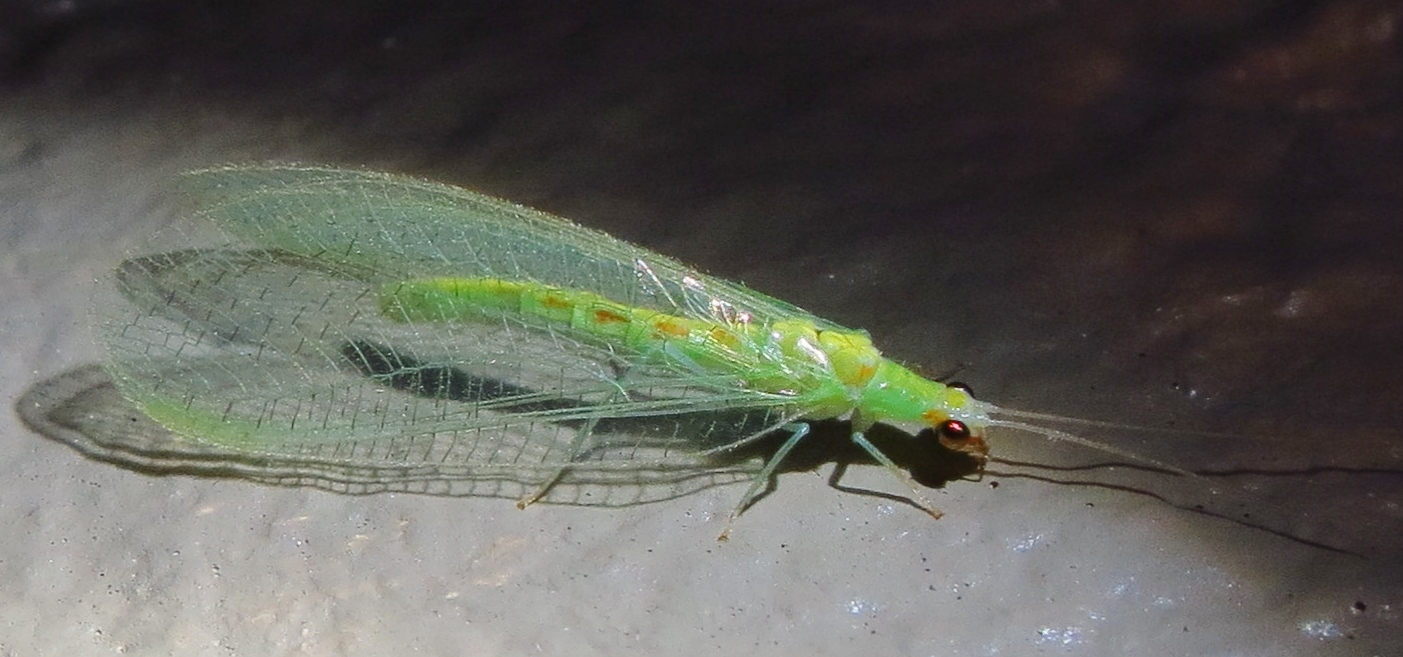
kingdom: Animalia
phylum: Arthropoda
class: Insecta
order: Neuroptera
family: Chrysopidae
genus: Chrysopa
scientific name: Chrysopa quadripunctata
